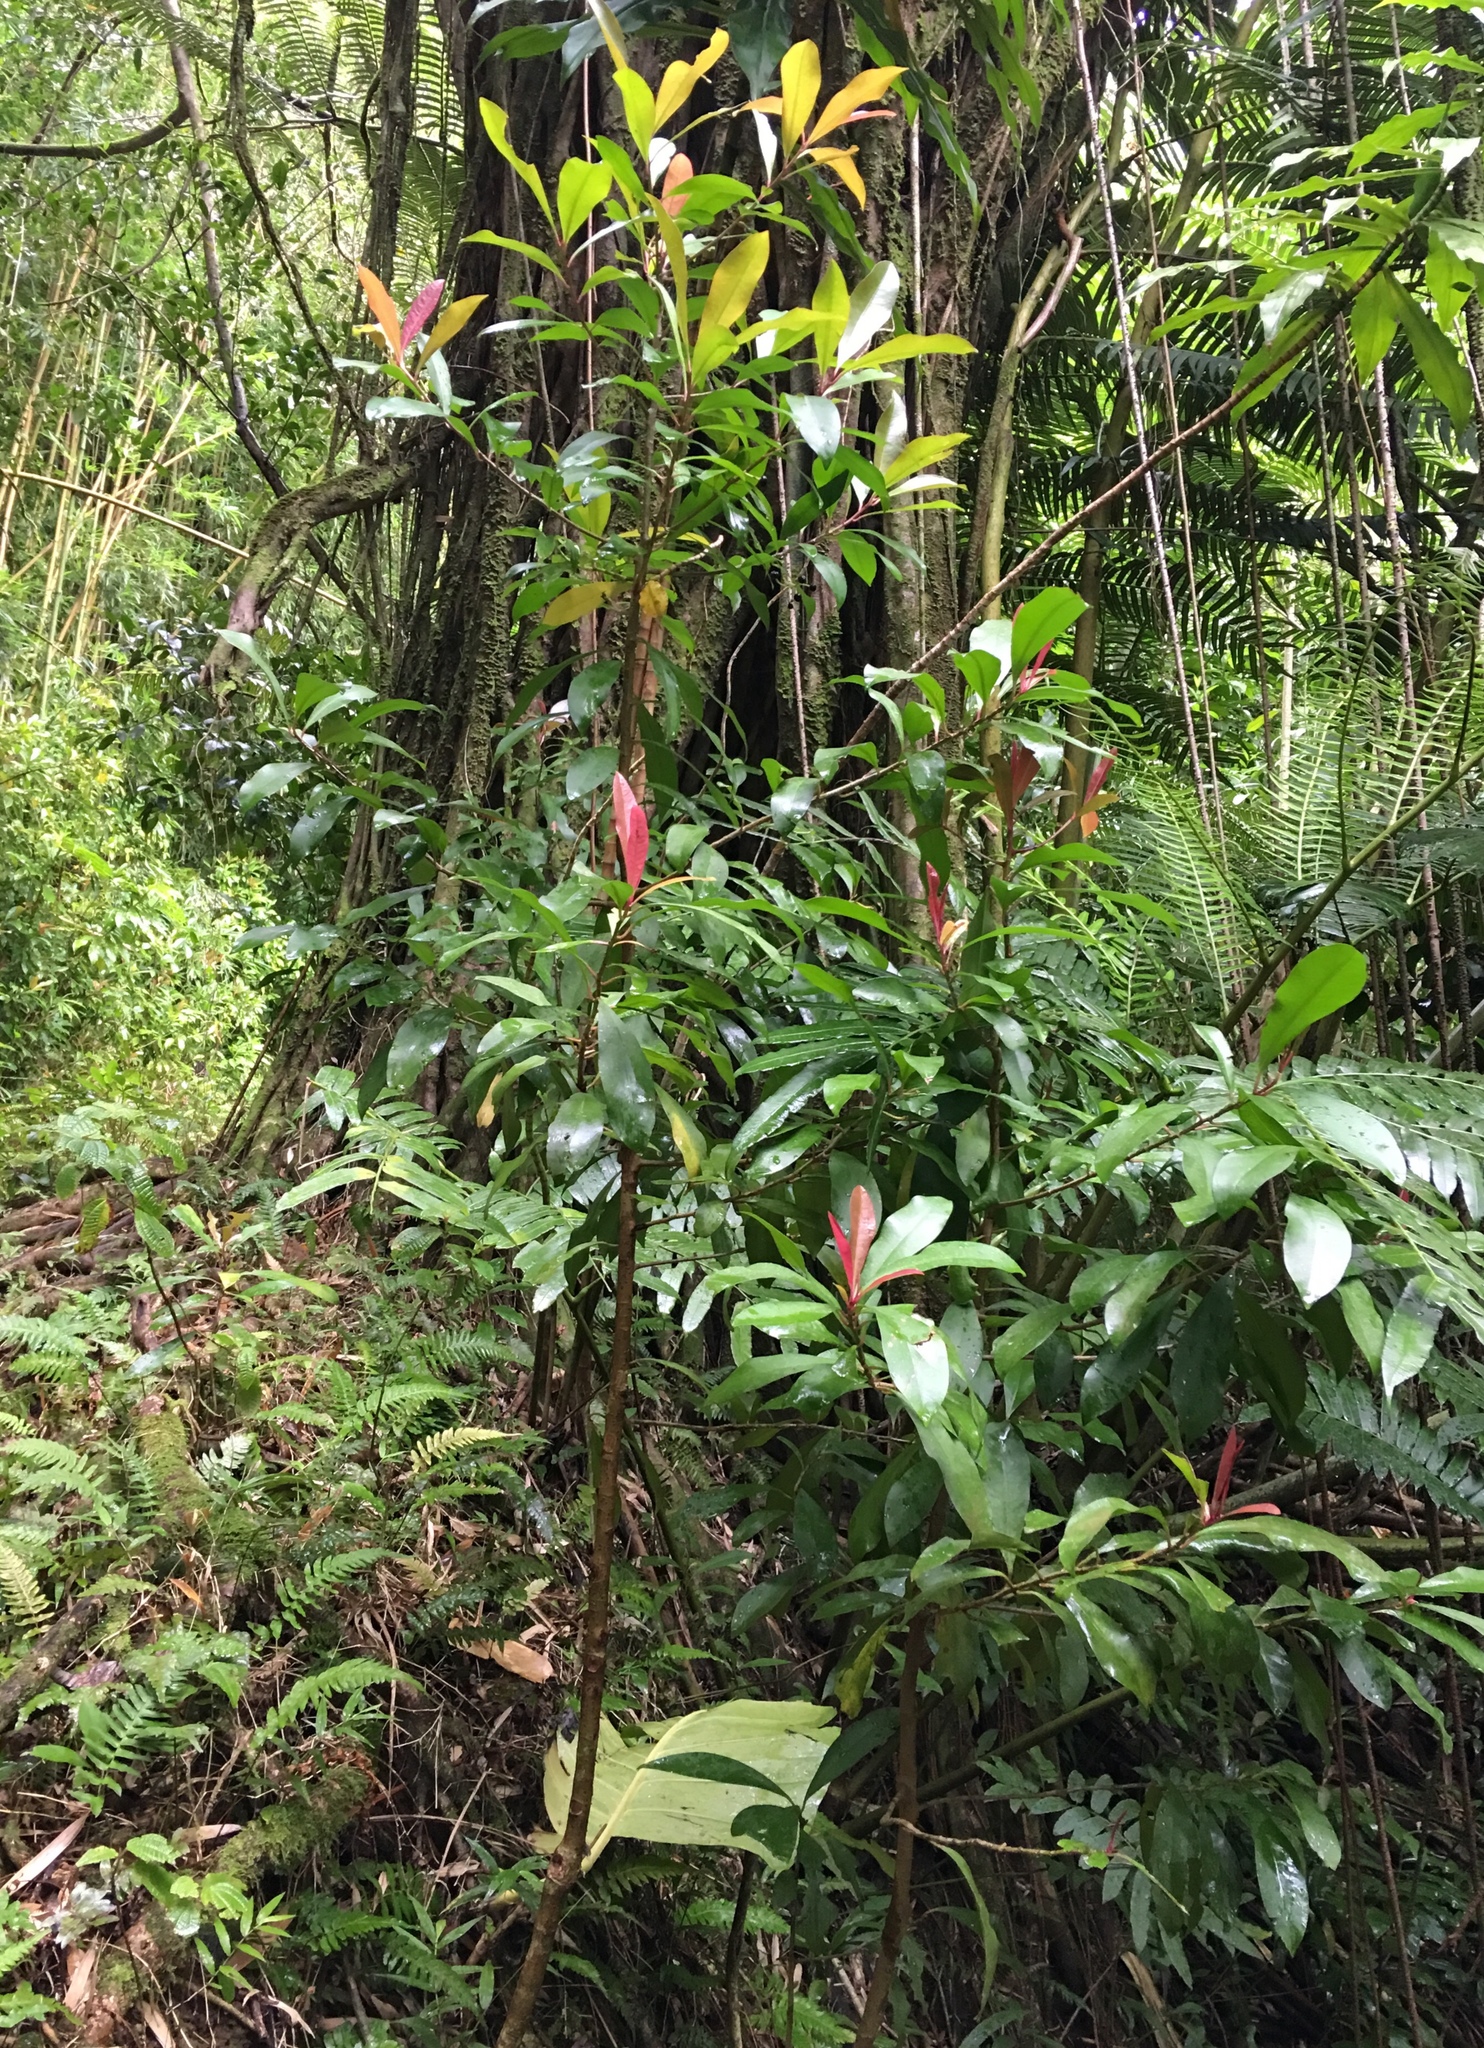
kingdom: Plantae
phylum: Tracheophyta
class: Magnoliopsida
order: Ericales
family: Primulaceae
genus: Ardisia
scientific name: Ardisia elliptica
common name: Shoebutton
